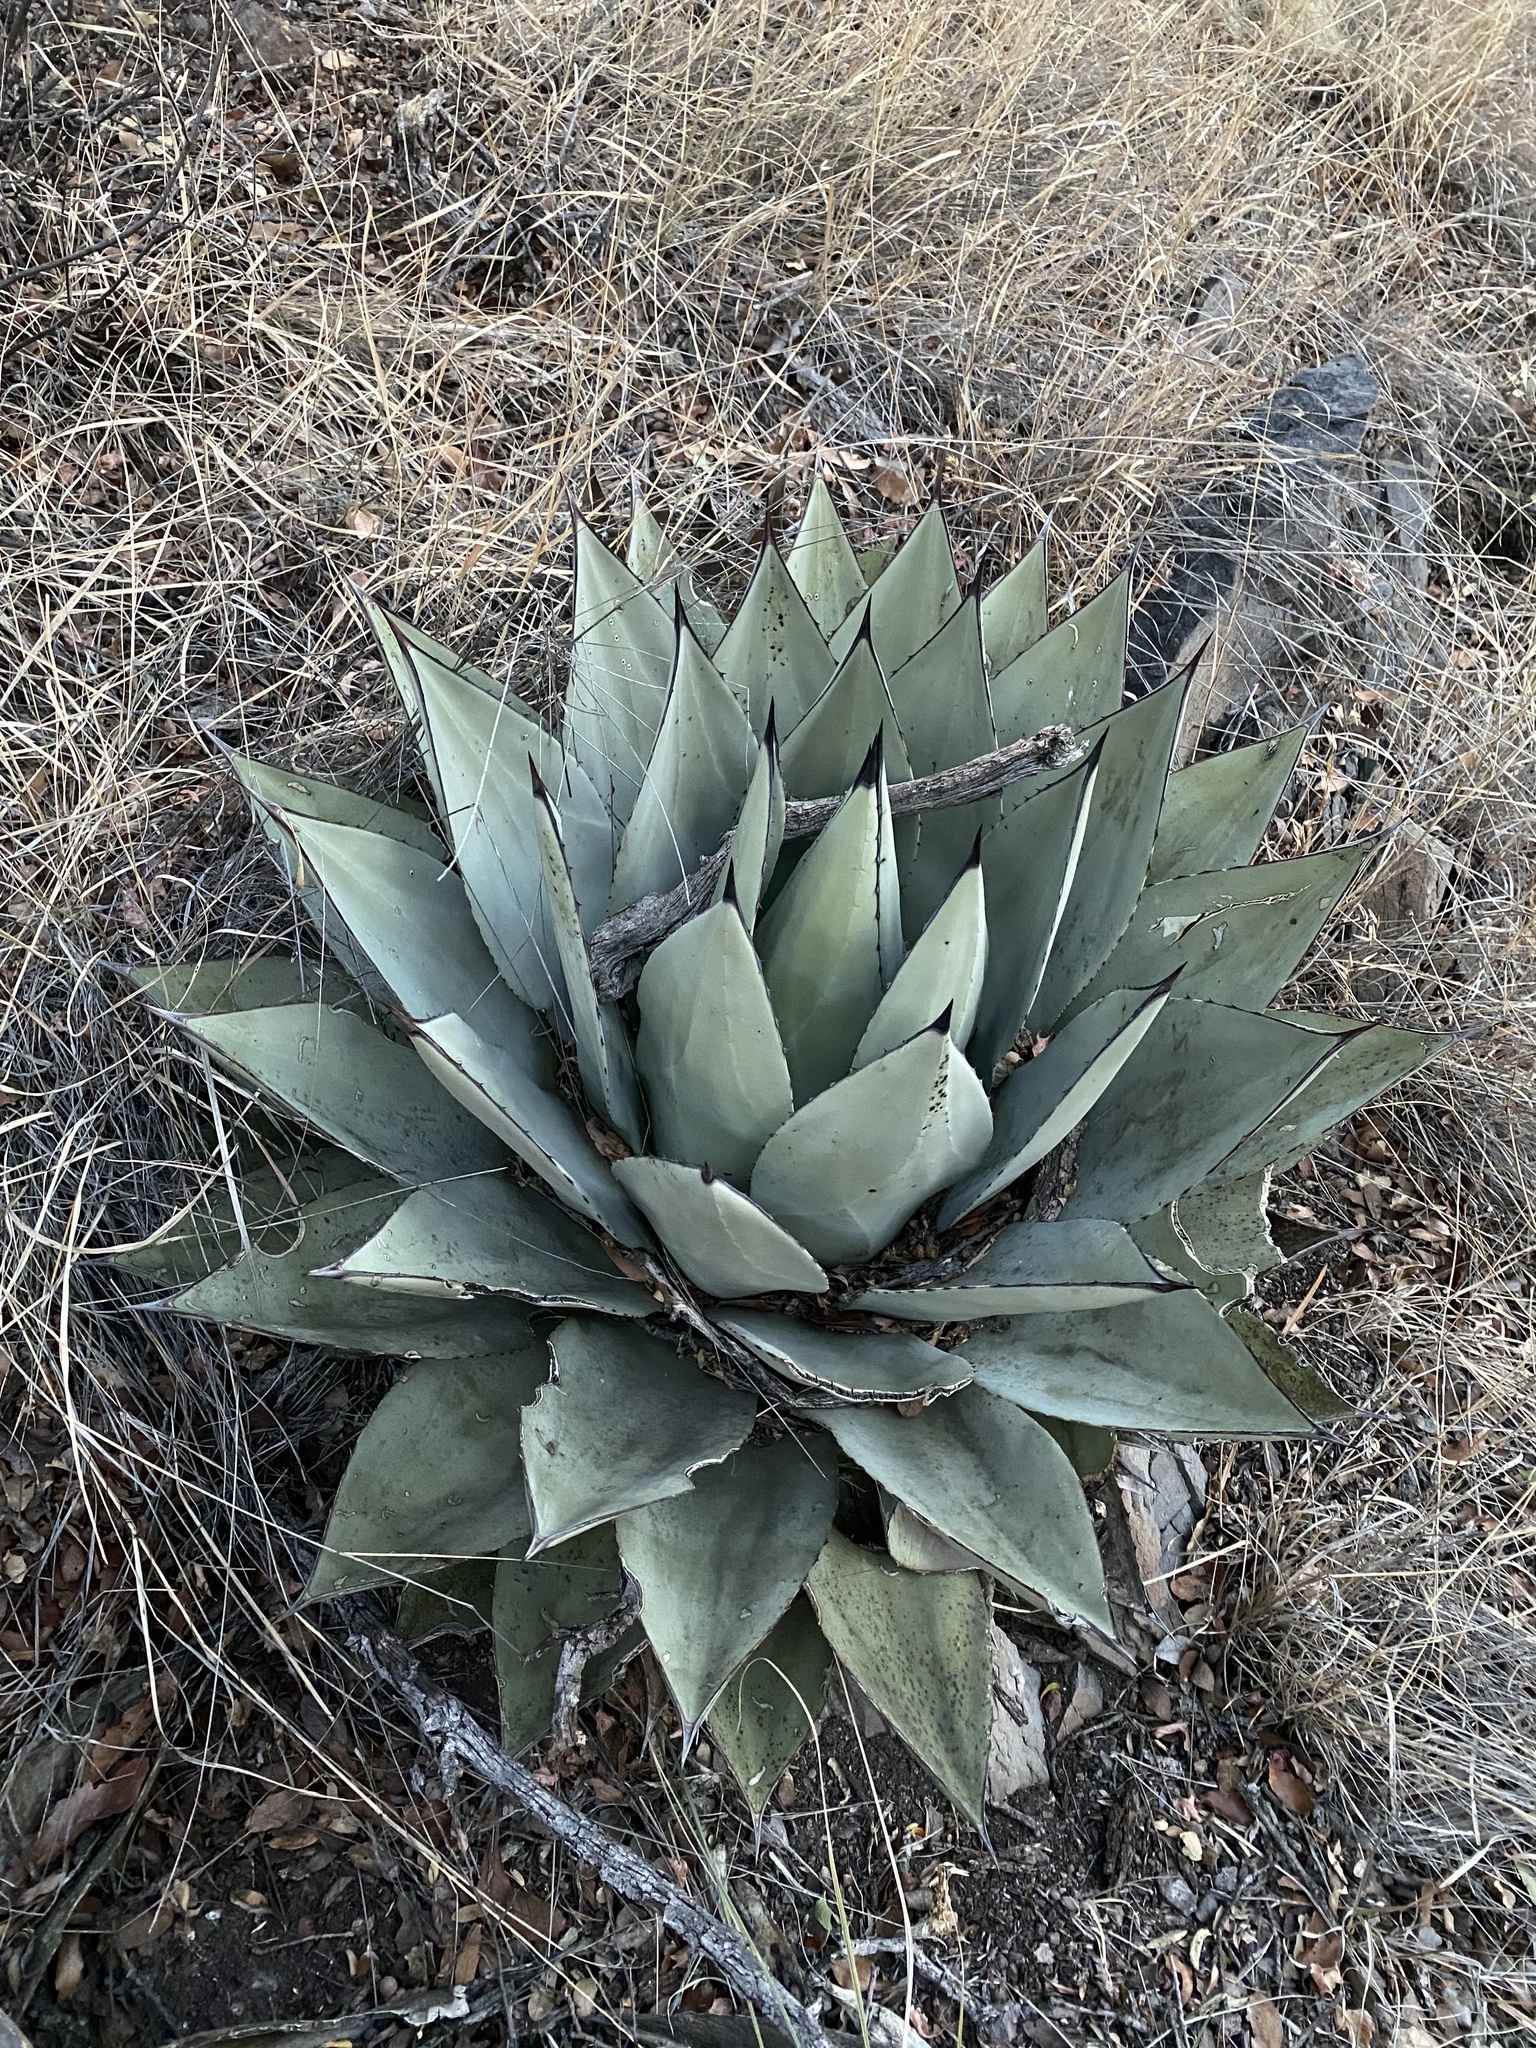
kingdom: Plantae
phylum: Tracheophyta
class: Liliopsida
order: Asparagales
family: Asparagaceae
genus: Agave
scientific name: Agave parryi
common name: Parry's agave
